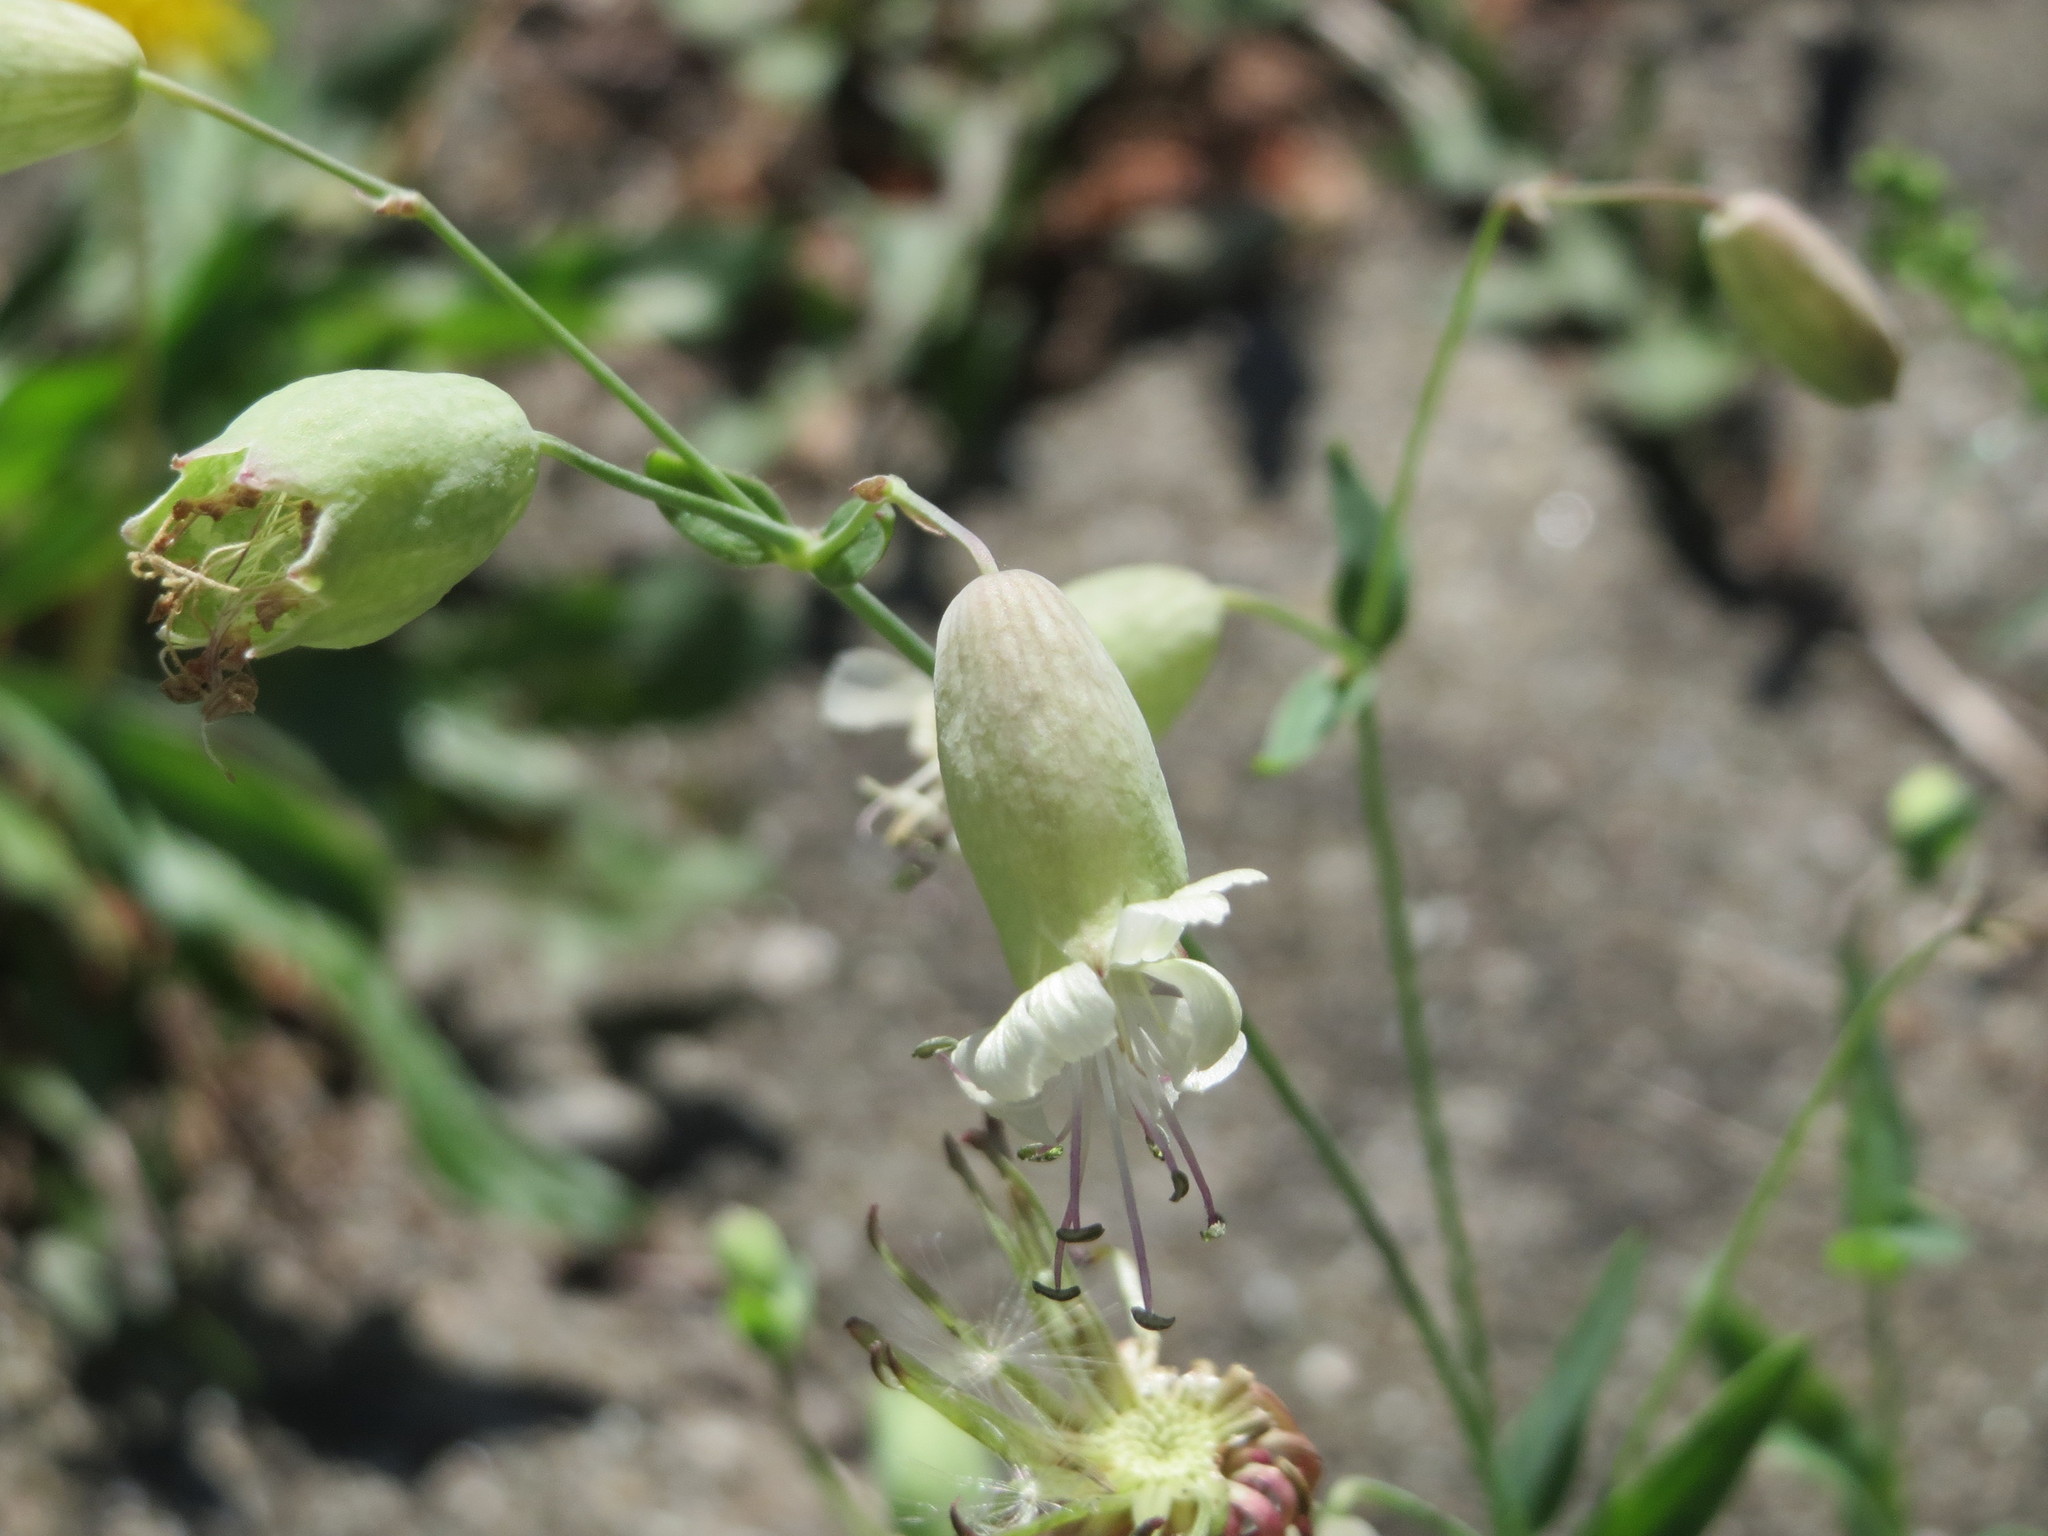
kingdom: Plantae
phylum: Tracheophyta
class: Magnoliopsida
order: Caryophyllales
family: Caryophyllaceae
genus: Silene
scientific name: Silene vulgaris
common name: Bladder campion
